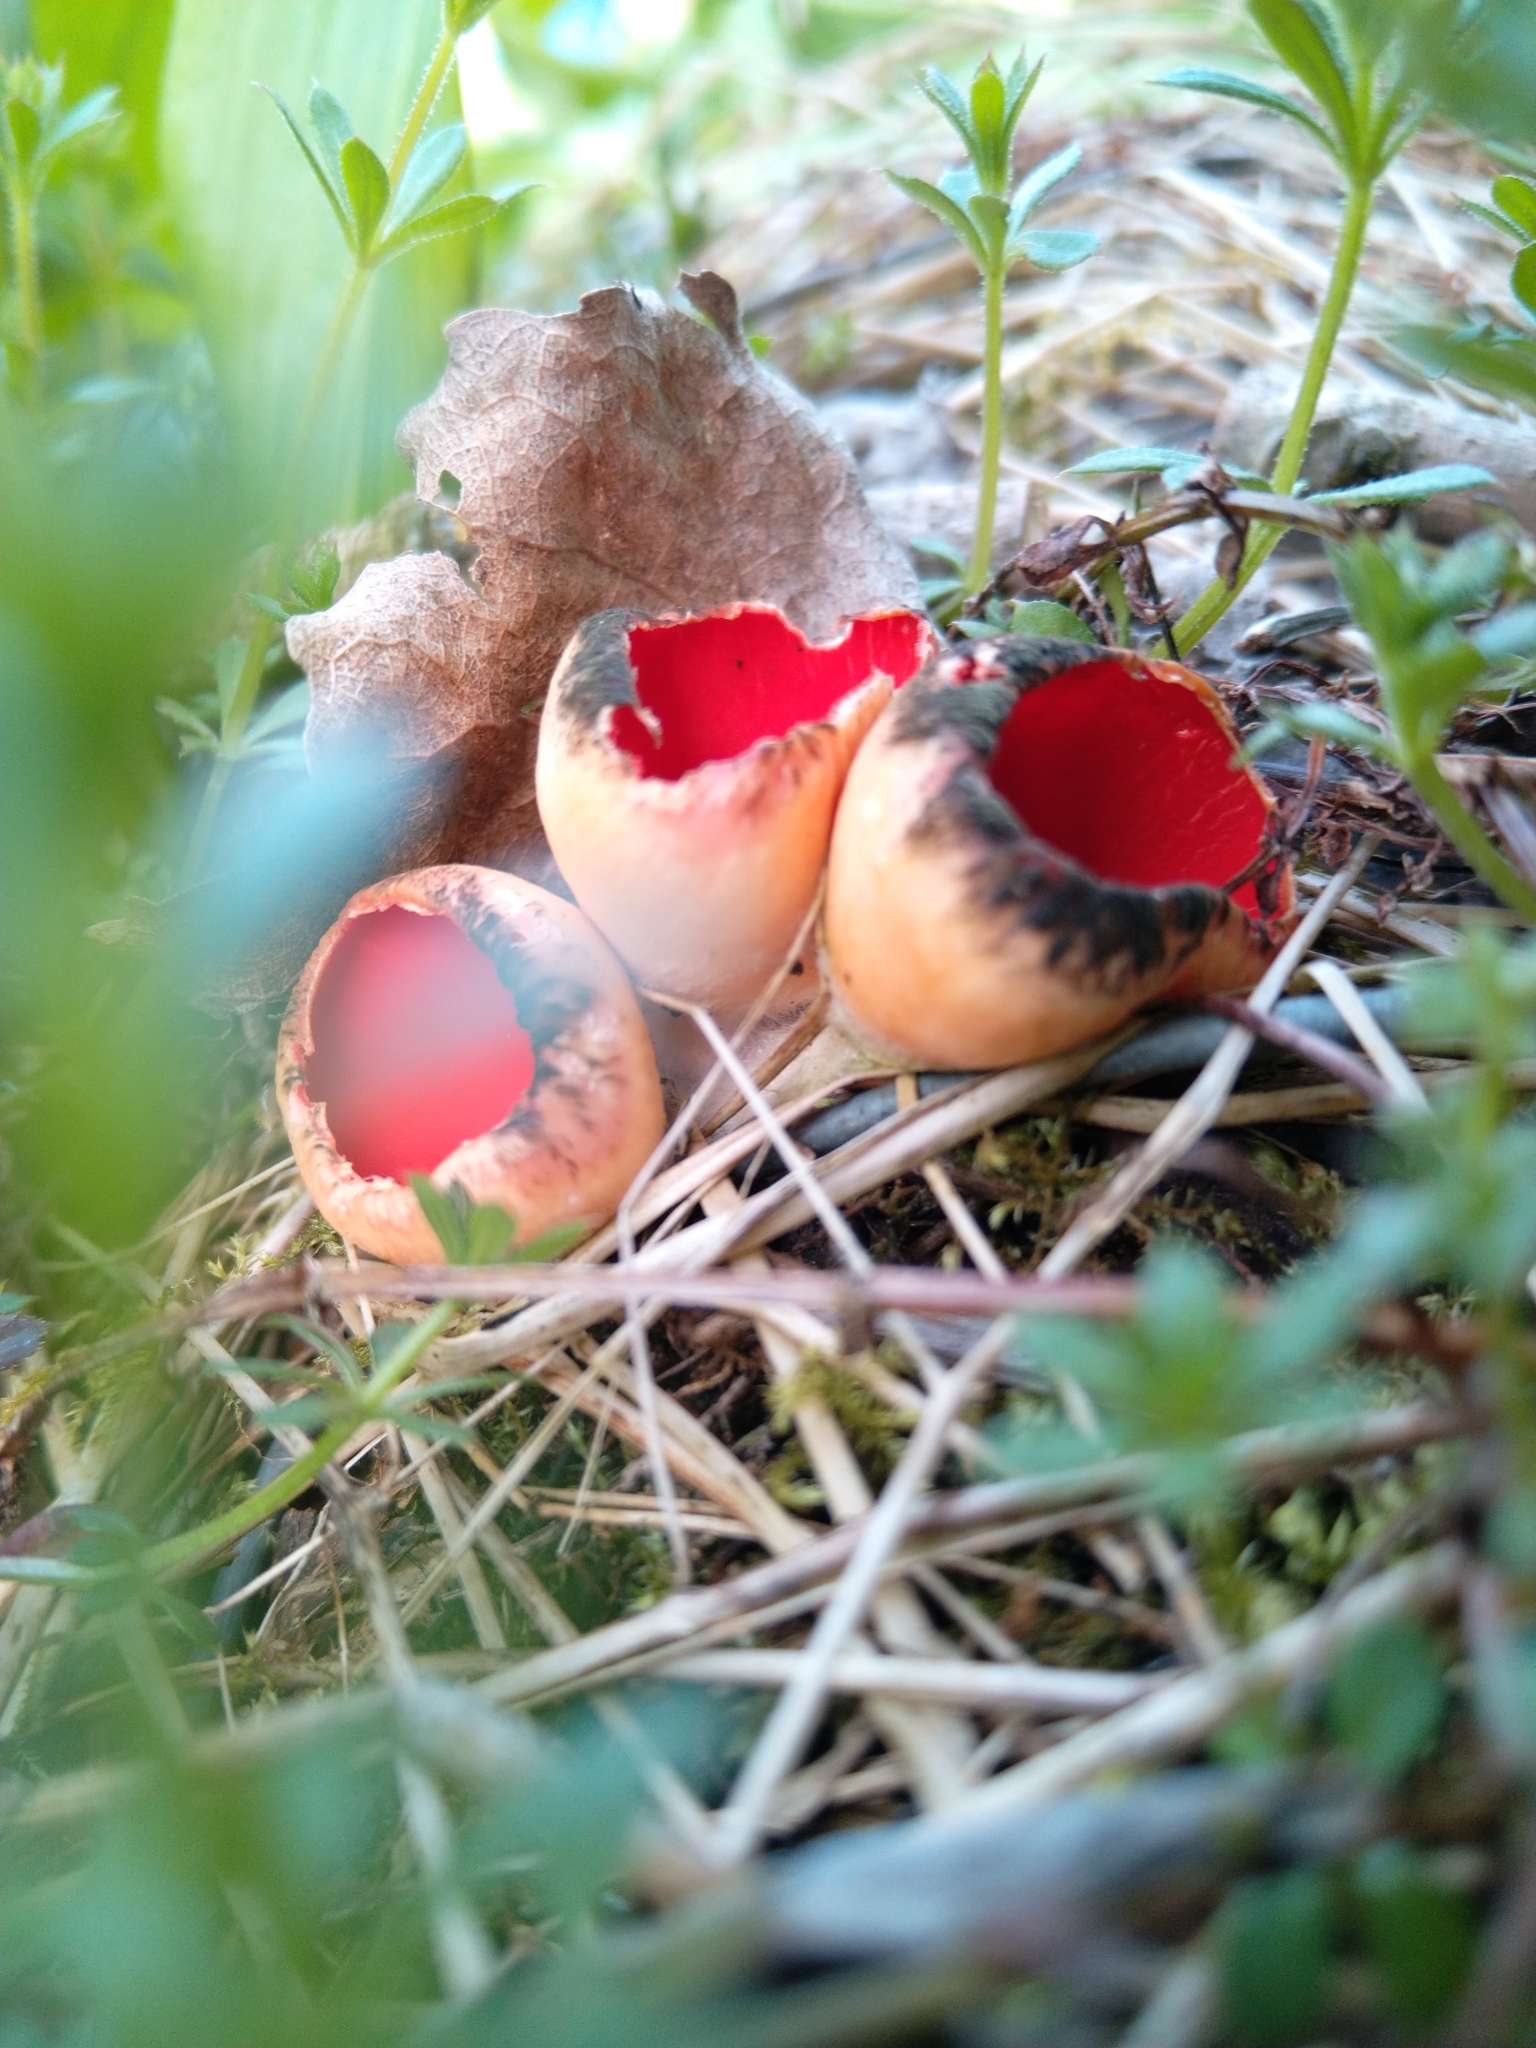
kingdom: Fungi
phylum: Ascomycota
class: Pezizomycetes
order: Pezizales
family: Sarcoscyphaceae
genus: Sarcoscypha
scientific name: Sarcoscypha
